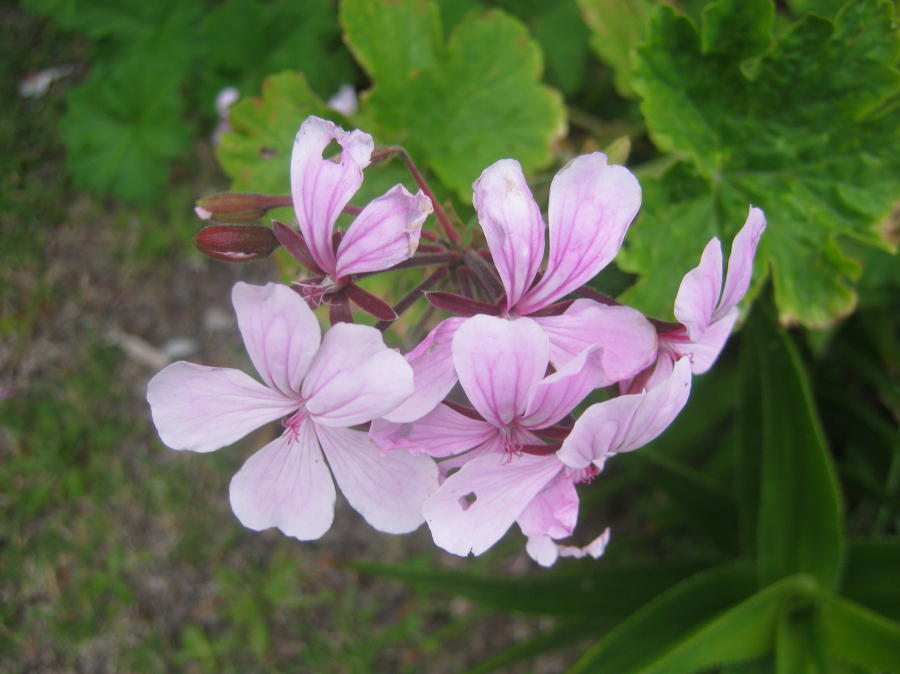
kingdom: Plantae
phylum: Tracheophyta
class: Magnoliopsida
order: Geraniales
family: Geraniaceae
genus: Pelargonium
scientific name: Pelargonium zonale
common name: Horseshoe geranium
